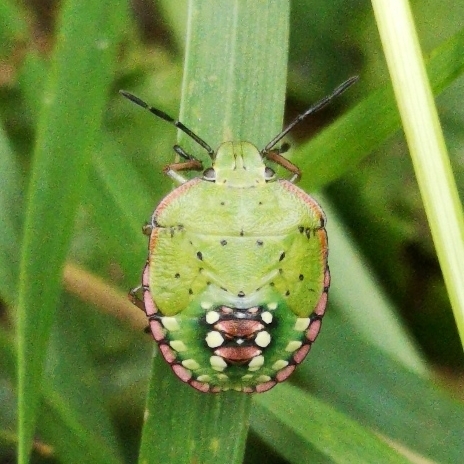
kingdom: Animalia
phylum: Arthropoda
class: Insecta
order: Hemiptera
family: Pentatomidae
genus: Nezara
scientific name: Nezara viridula
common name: Southern green stink bug
